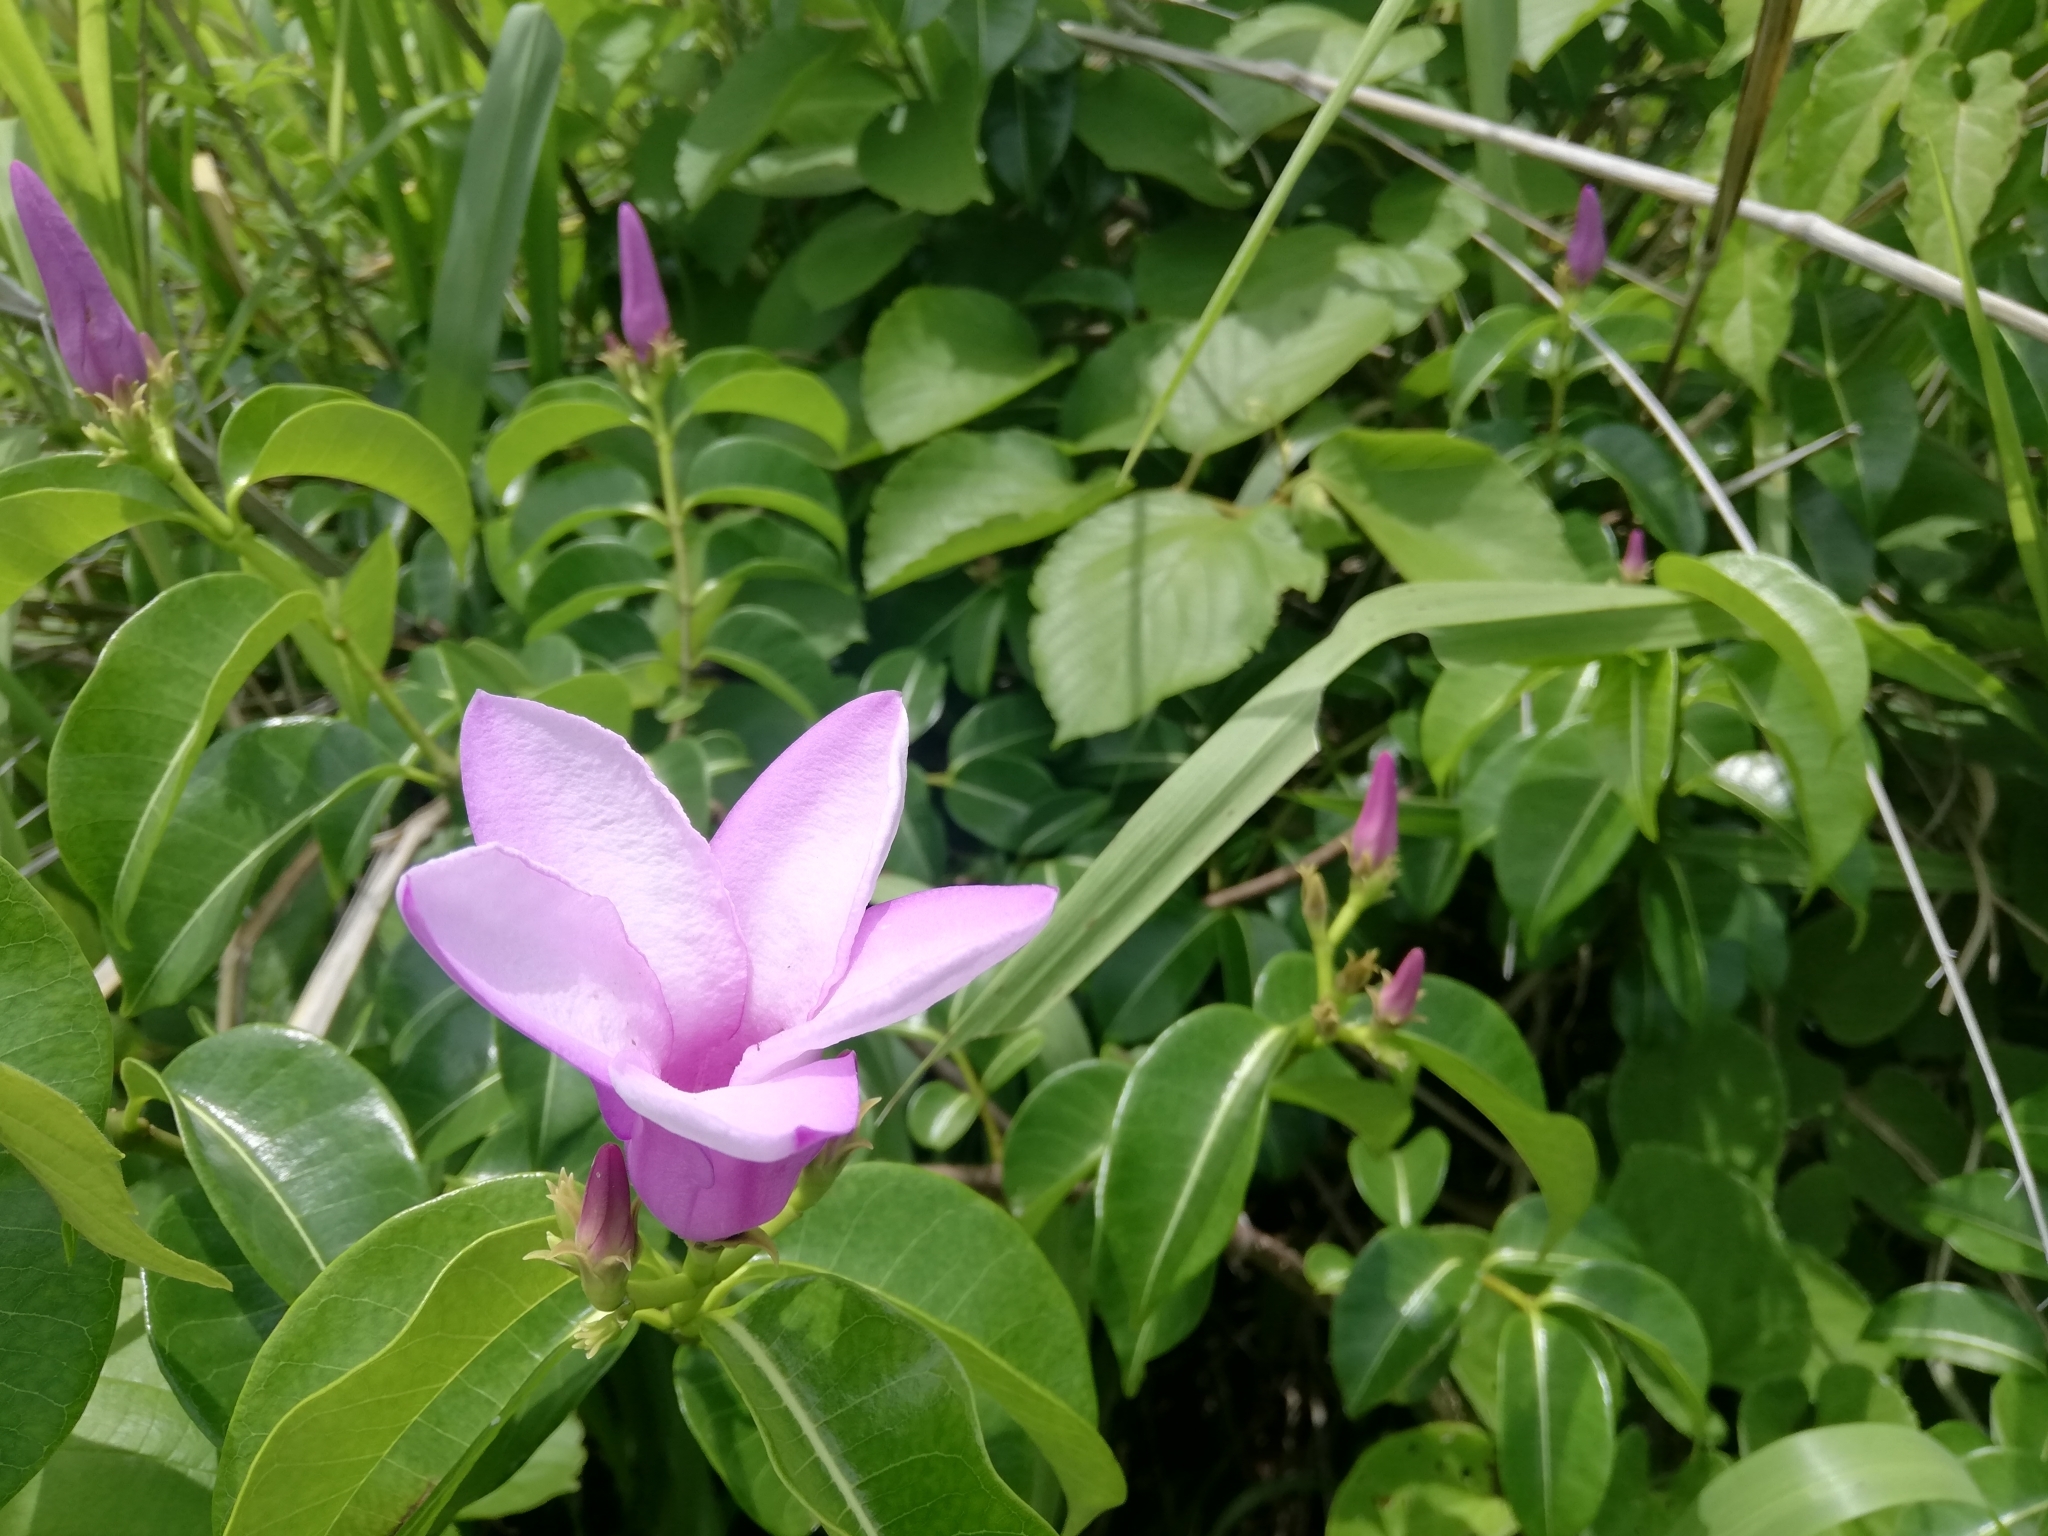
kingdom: Plantae
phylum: Tracheophyta
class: Magnoliopsida
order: Gentianales
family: Apocynaceae
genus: Cryptostegia
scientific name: Cryptostegia grandiflora
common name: Palay rubbervine
